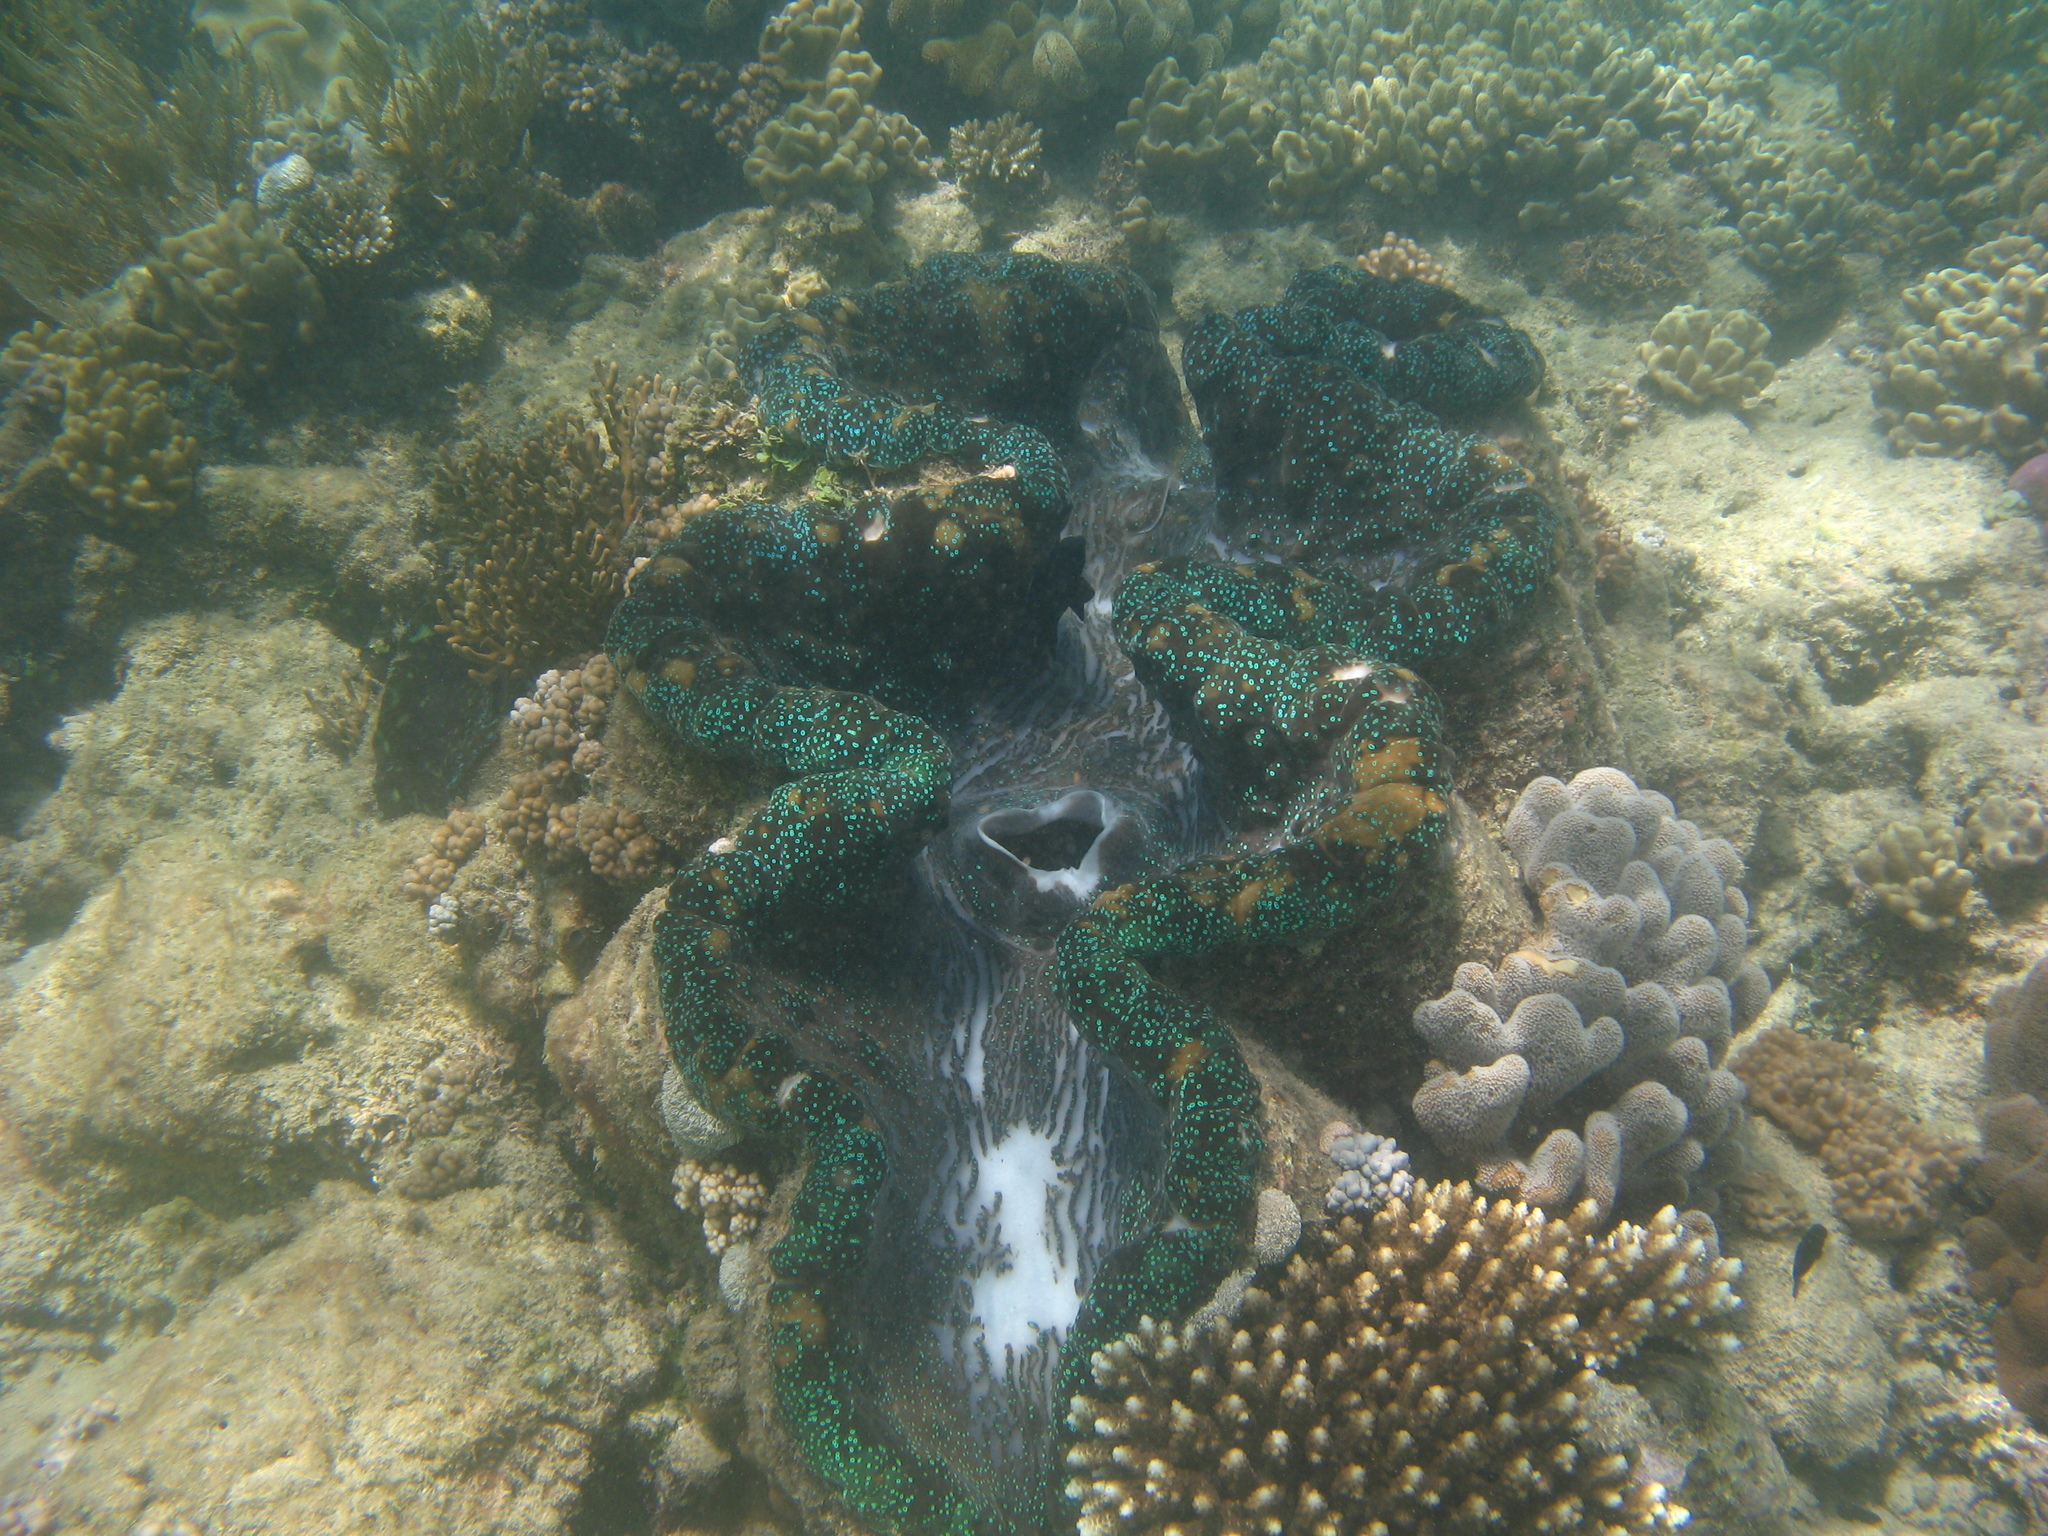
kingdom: Animalia
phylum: Mollusca
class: Bivalvia
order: Cardiida
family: Cardiidae
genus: Tridacna
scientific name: Tridacna gigas
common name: Giant clam
